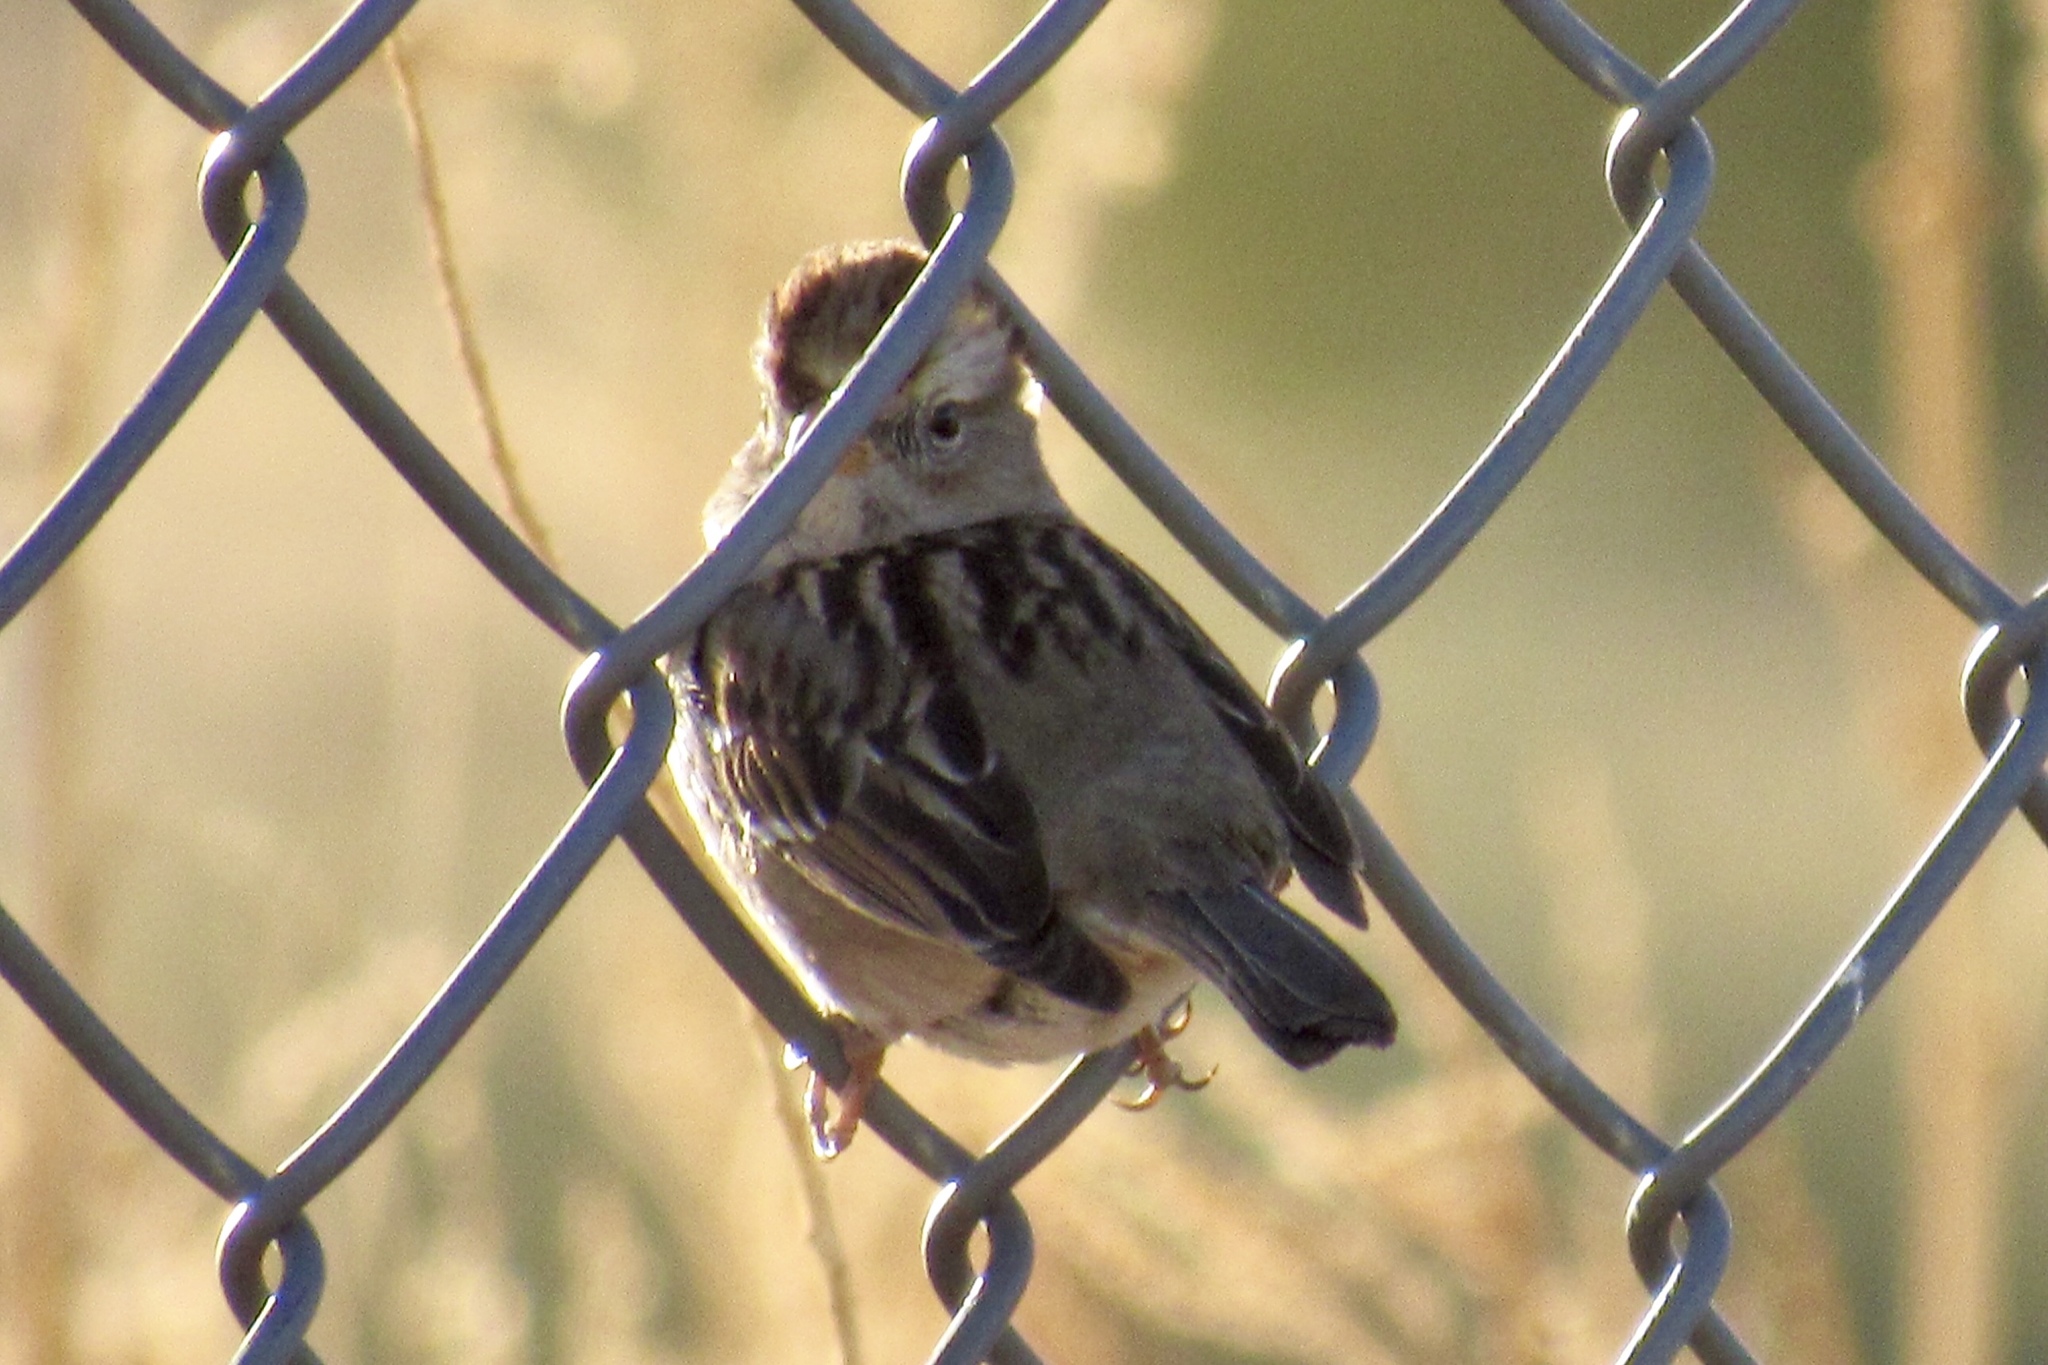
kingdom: Animalia
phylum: Chordata
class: Aves
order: Passeriformes
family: Passerellidae
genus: Zonotrichia
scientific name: Zonotrichia leucophrys
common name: White-crowned sparrow
